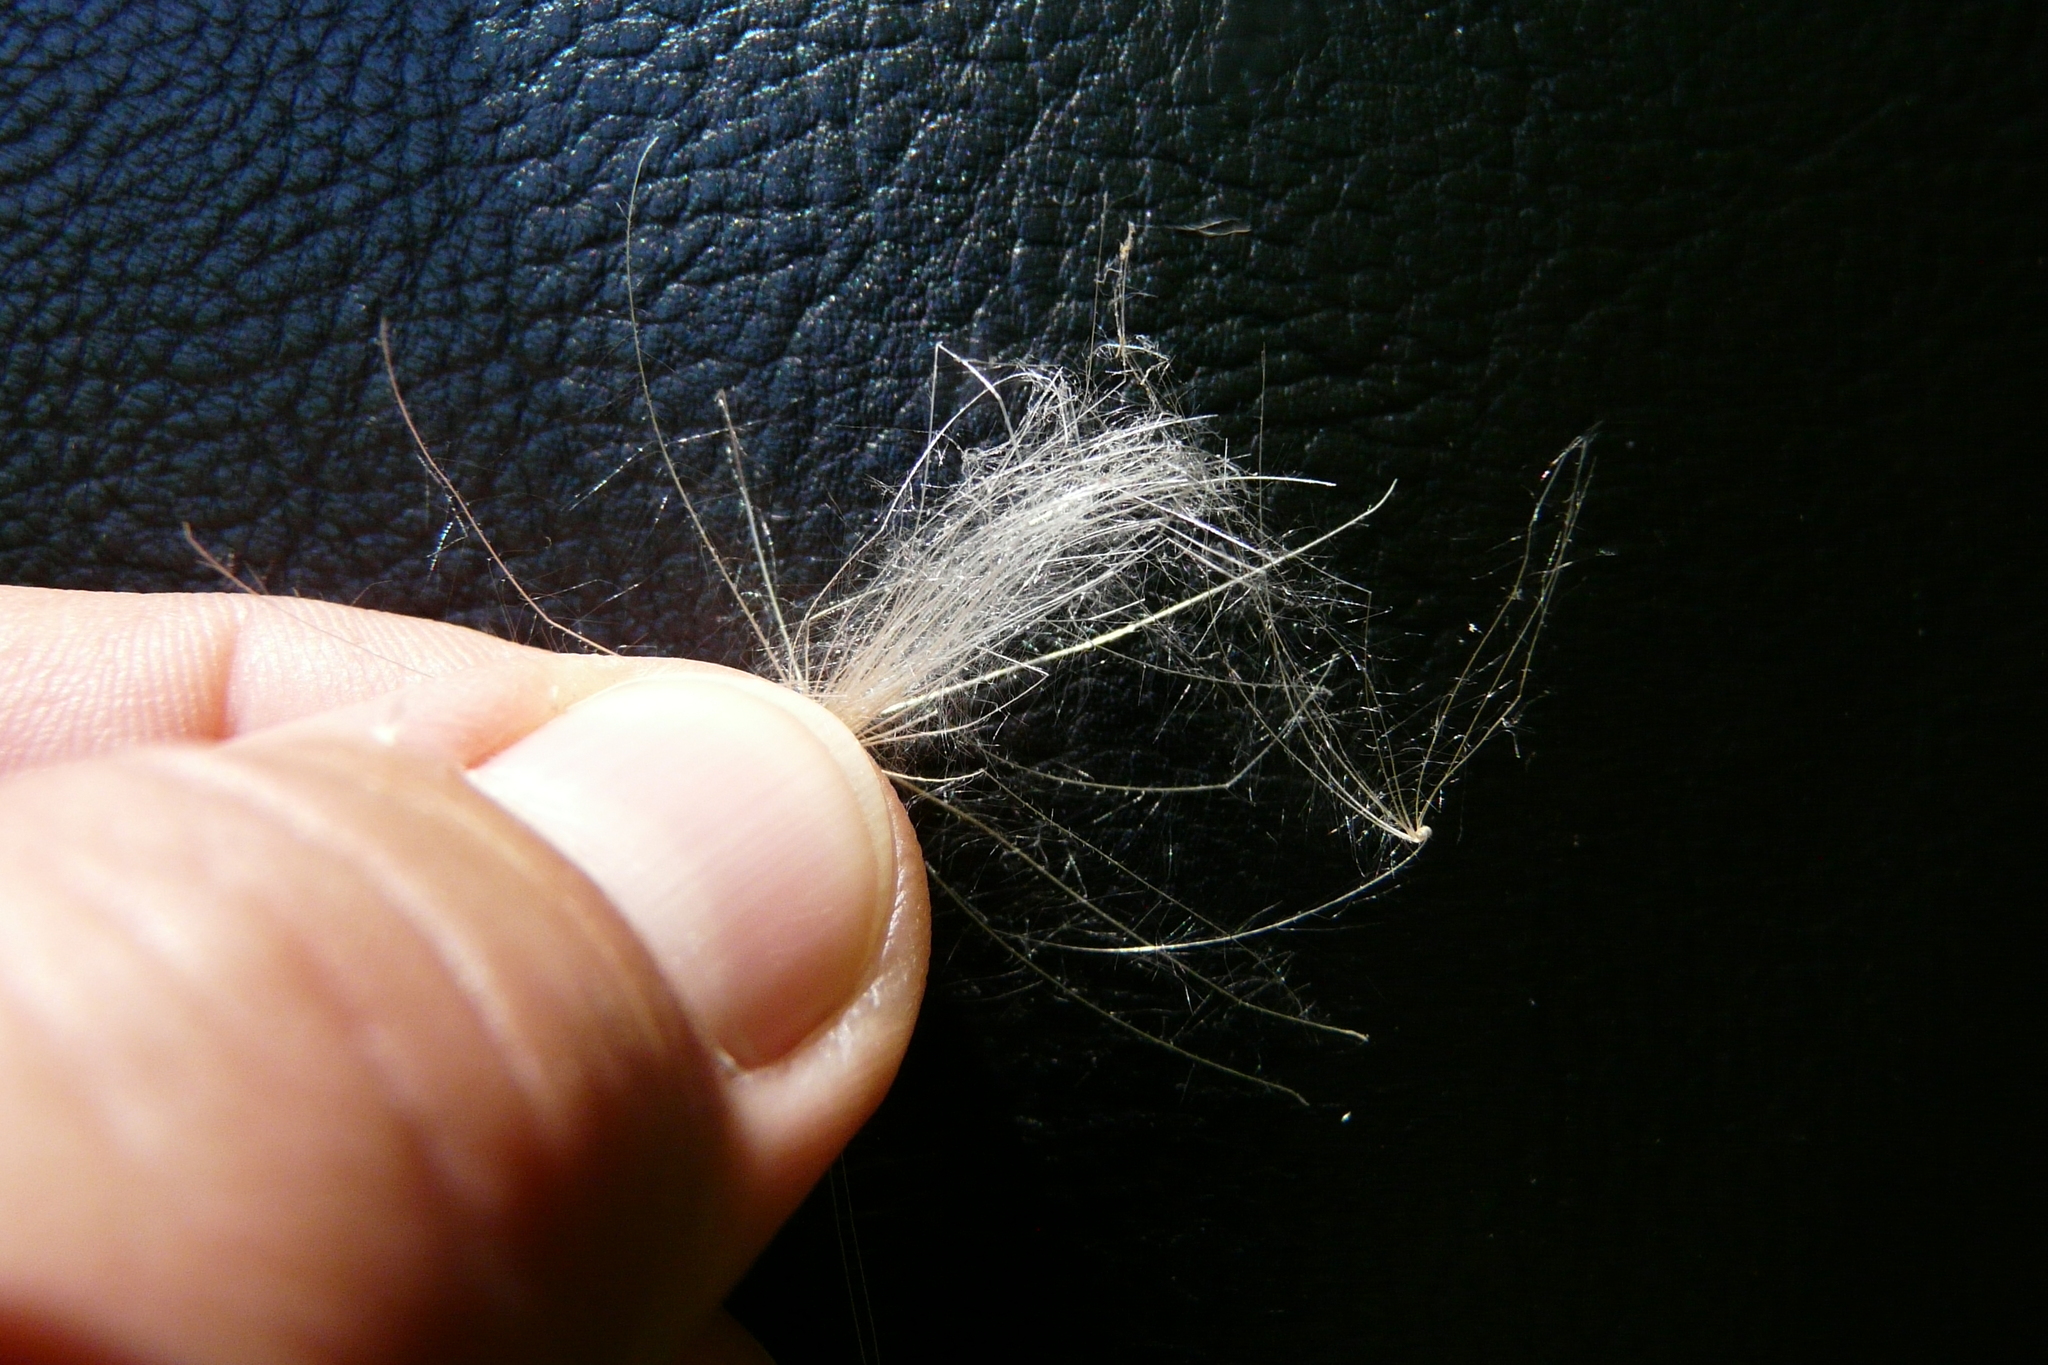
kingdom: Plantae
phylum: Tracheophyta
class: Magnoliopsida
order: Asterales
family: Asteraceae
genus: Cirsium
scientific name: Cirsium vulgare
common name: Bull thistle
